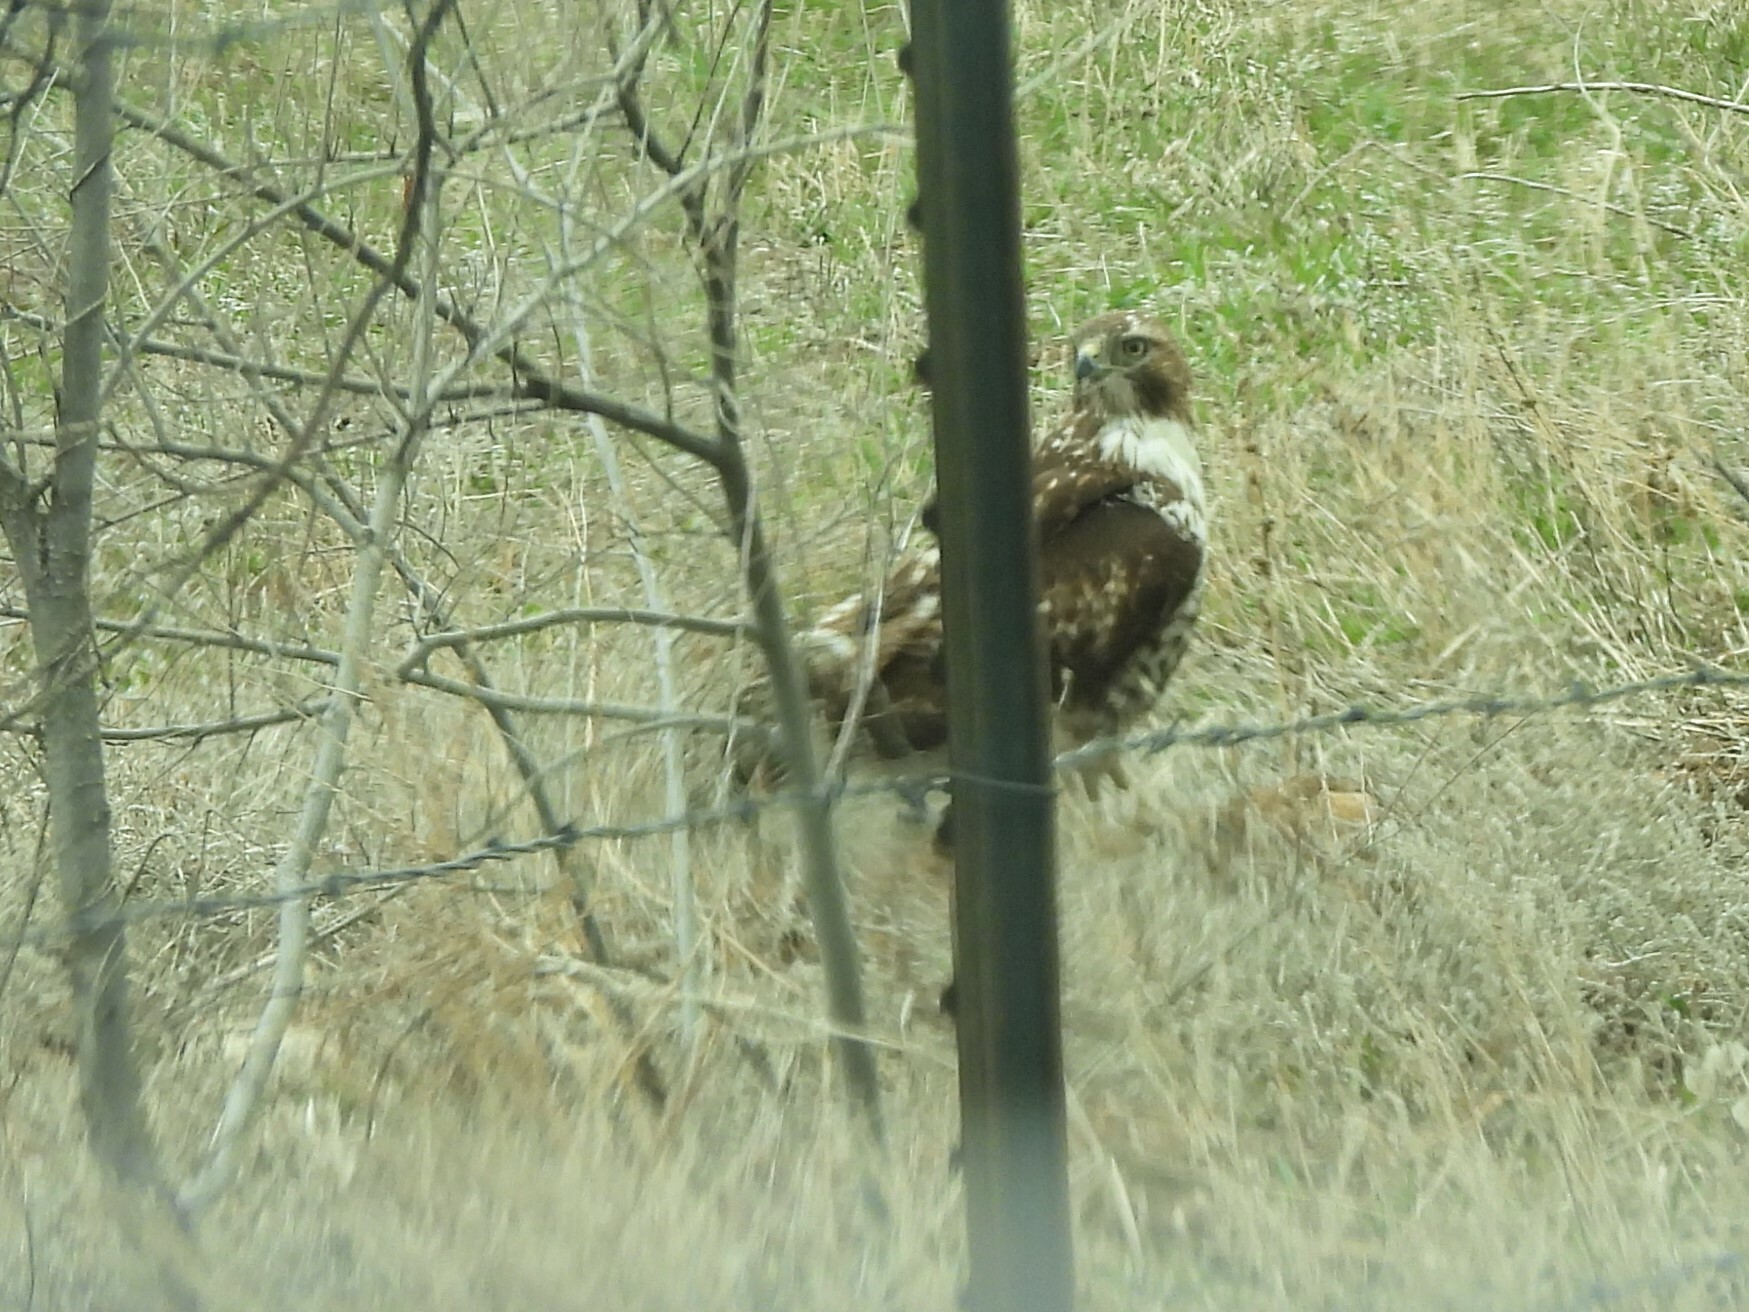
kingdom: Animalia
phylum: Chordata
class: Aves
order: Accipitriformes
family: Accipitridae
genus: Buteo
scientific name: Buteo jamaicensis
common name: Red-tailed hawk
